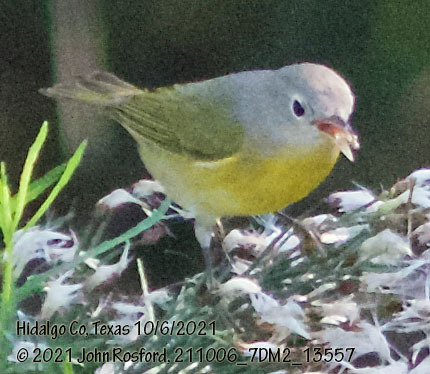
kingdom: Animalia
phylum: Chordata
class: Aves
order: Passeriformes
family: Parulidae
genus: Leiothlypis
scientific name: Leiothlypis ruficapilla
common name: Nashville warbler
